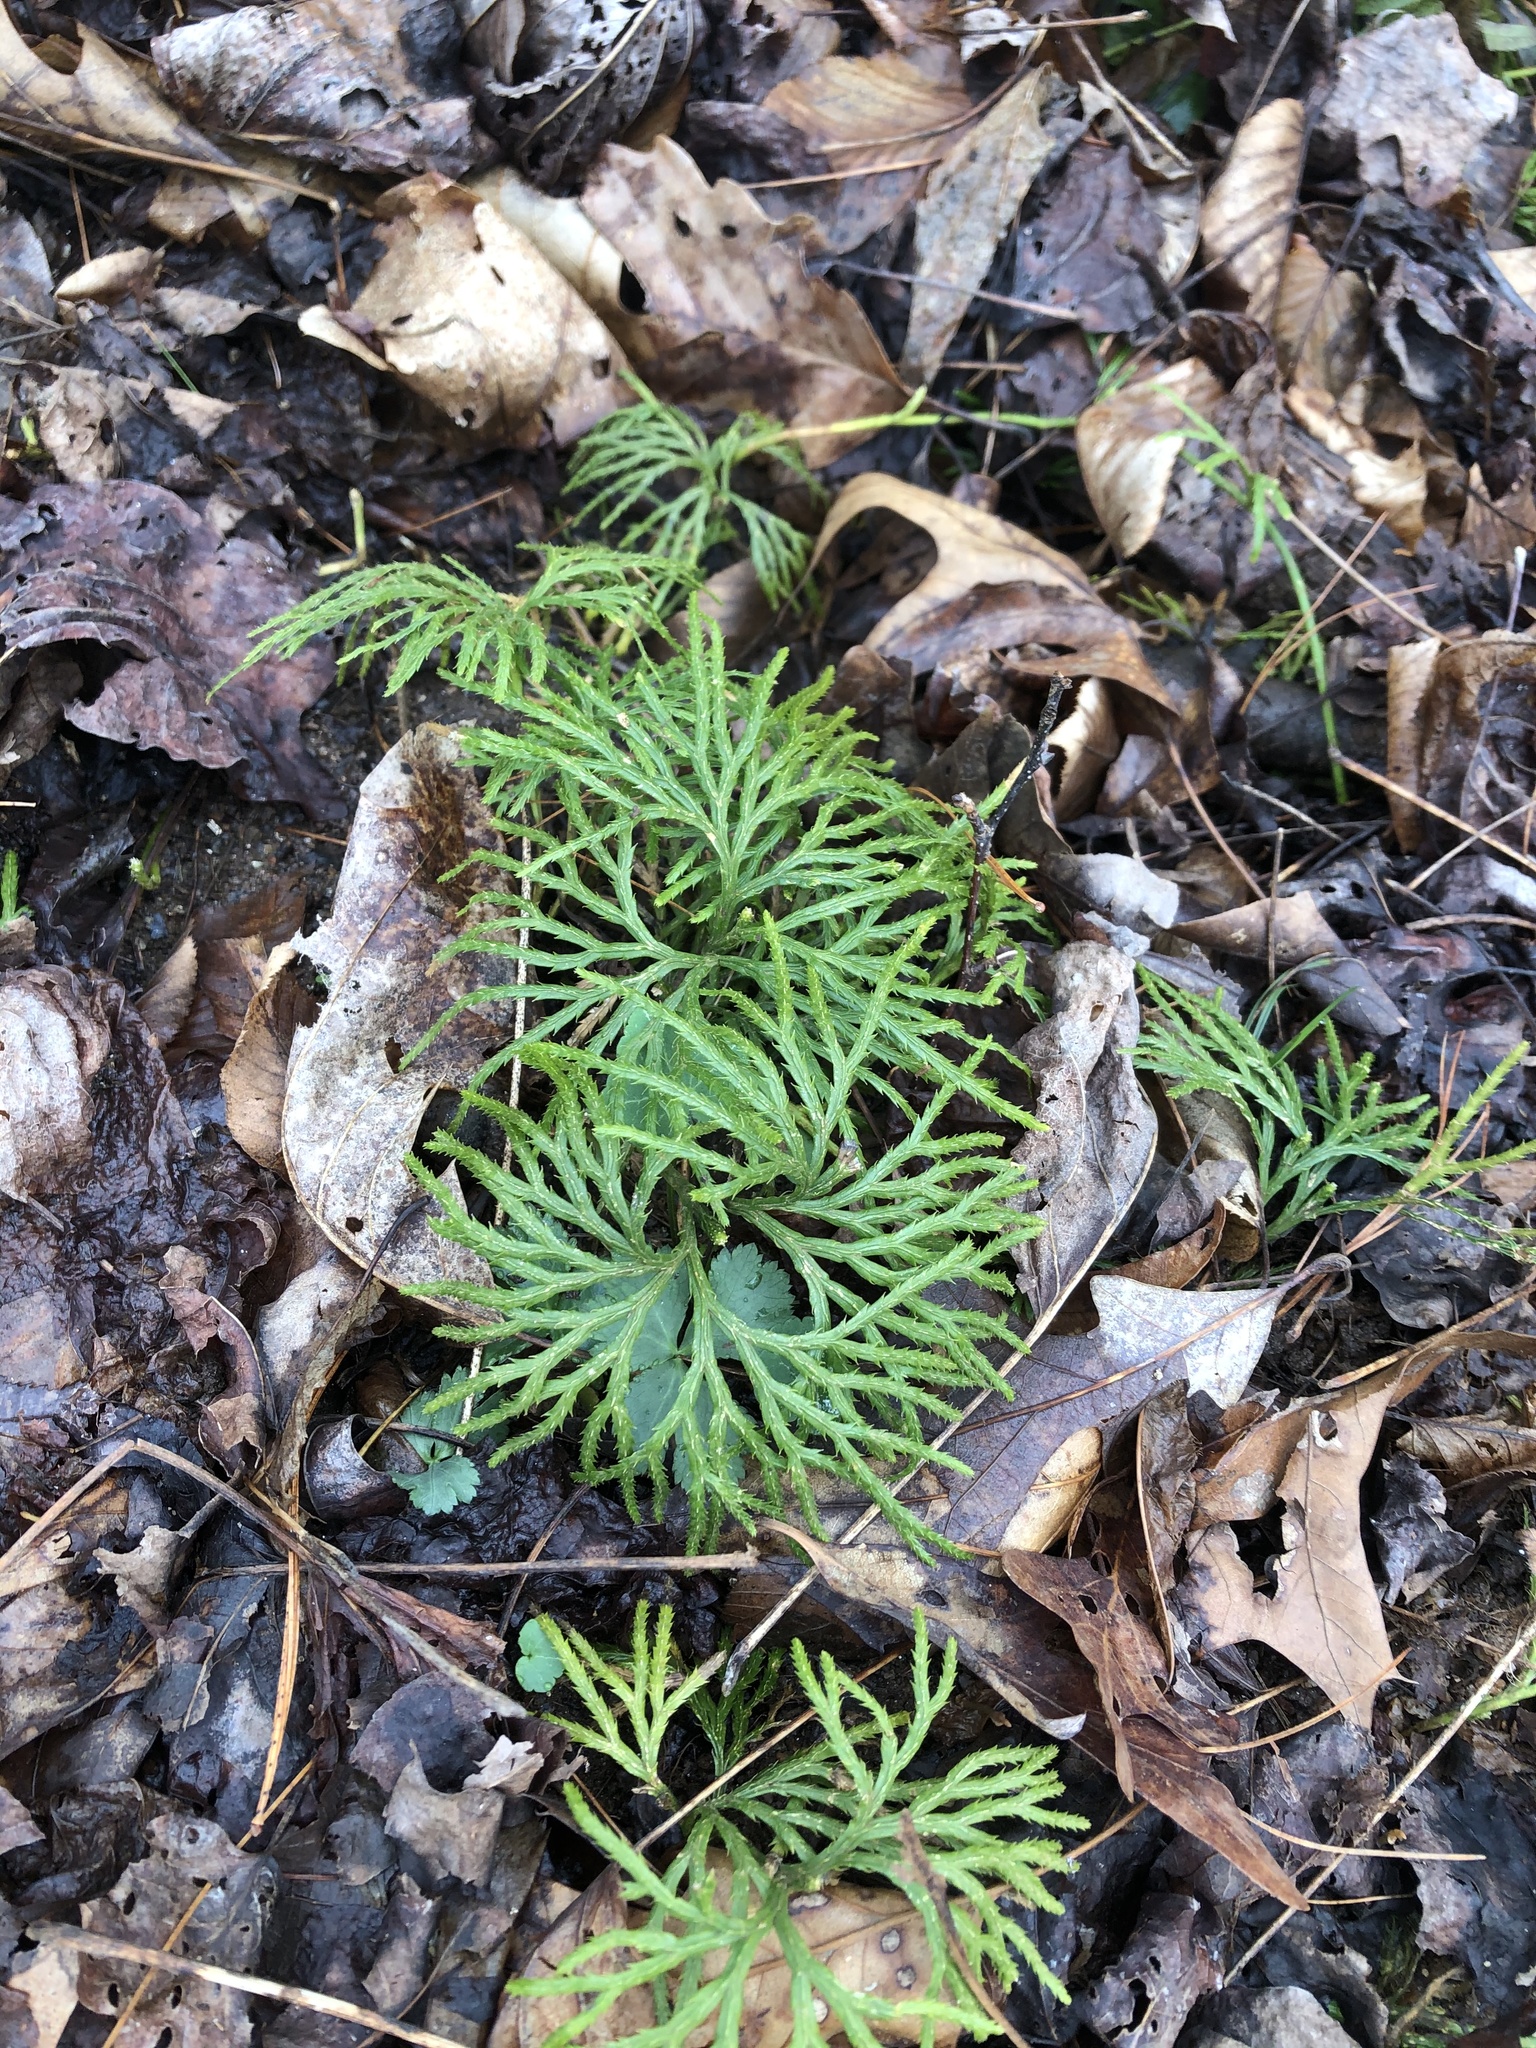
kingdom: Plantae
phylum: Tracheophyta
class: Lycopodiopsida
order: Lycopodiales
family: Lycopodiaceae
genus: Diphasiastrum
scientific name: Diphasiastrum digitatum
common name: Southern running-pine
